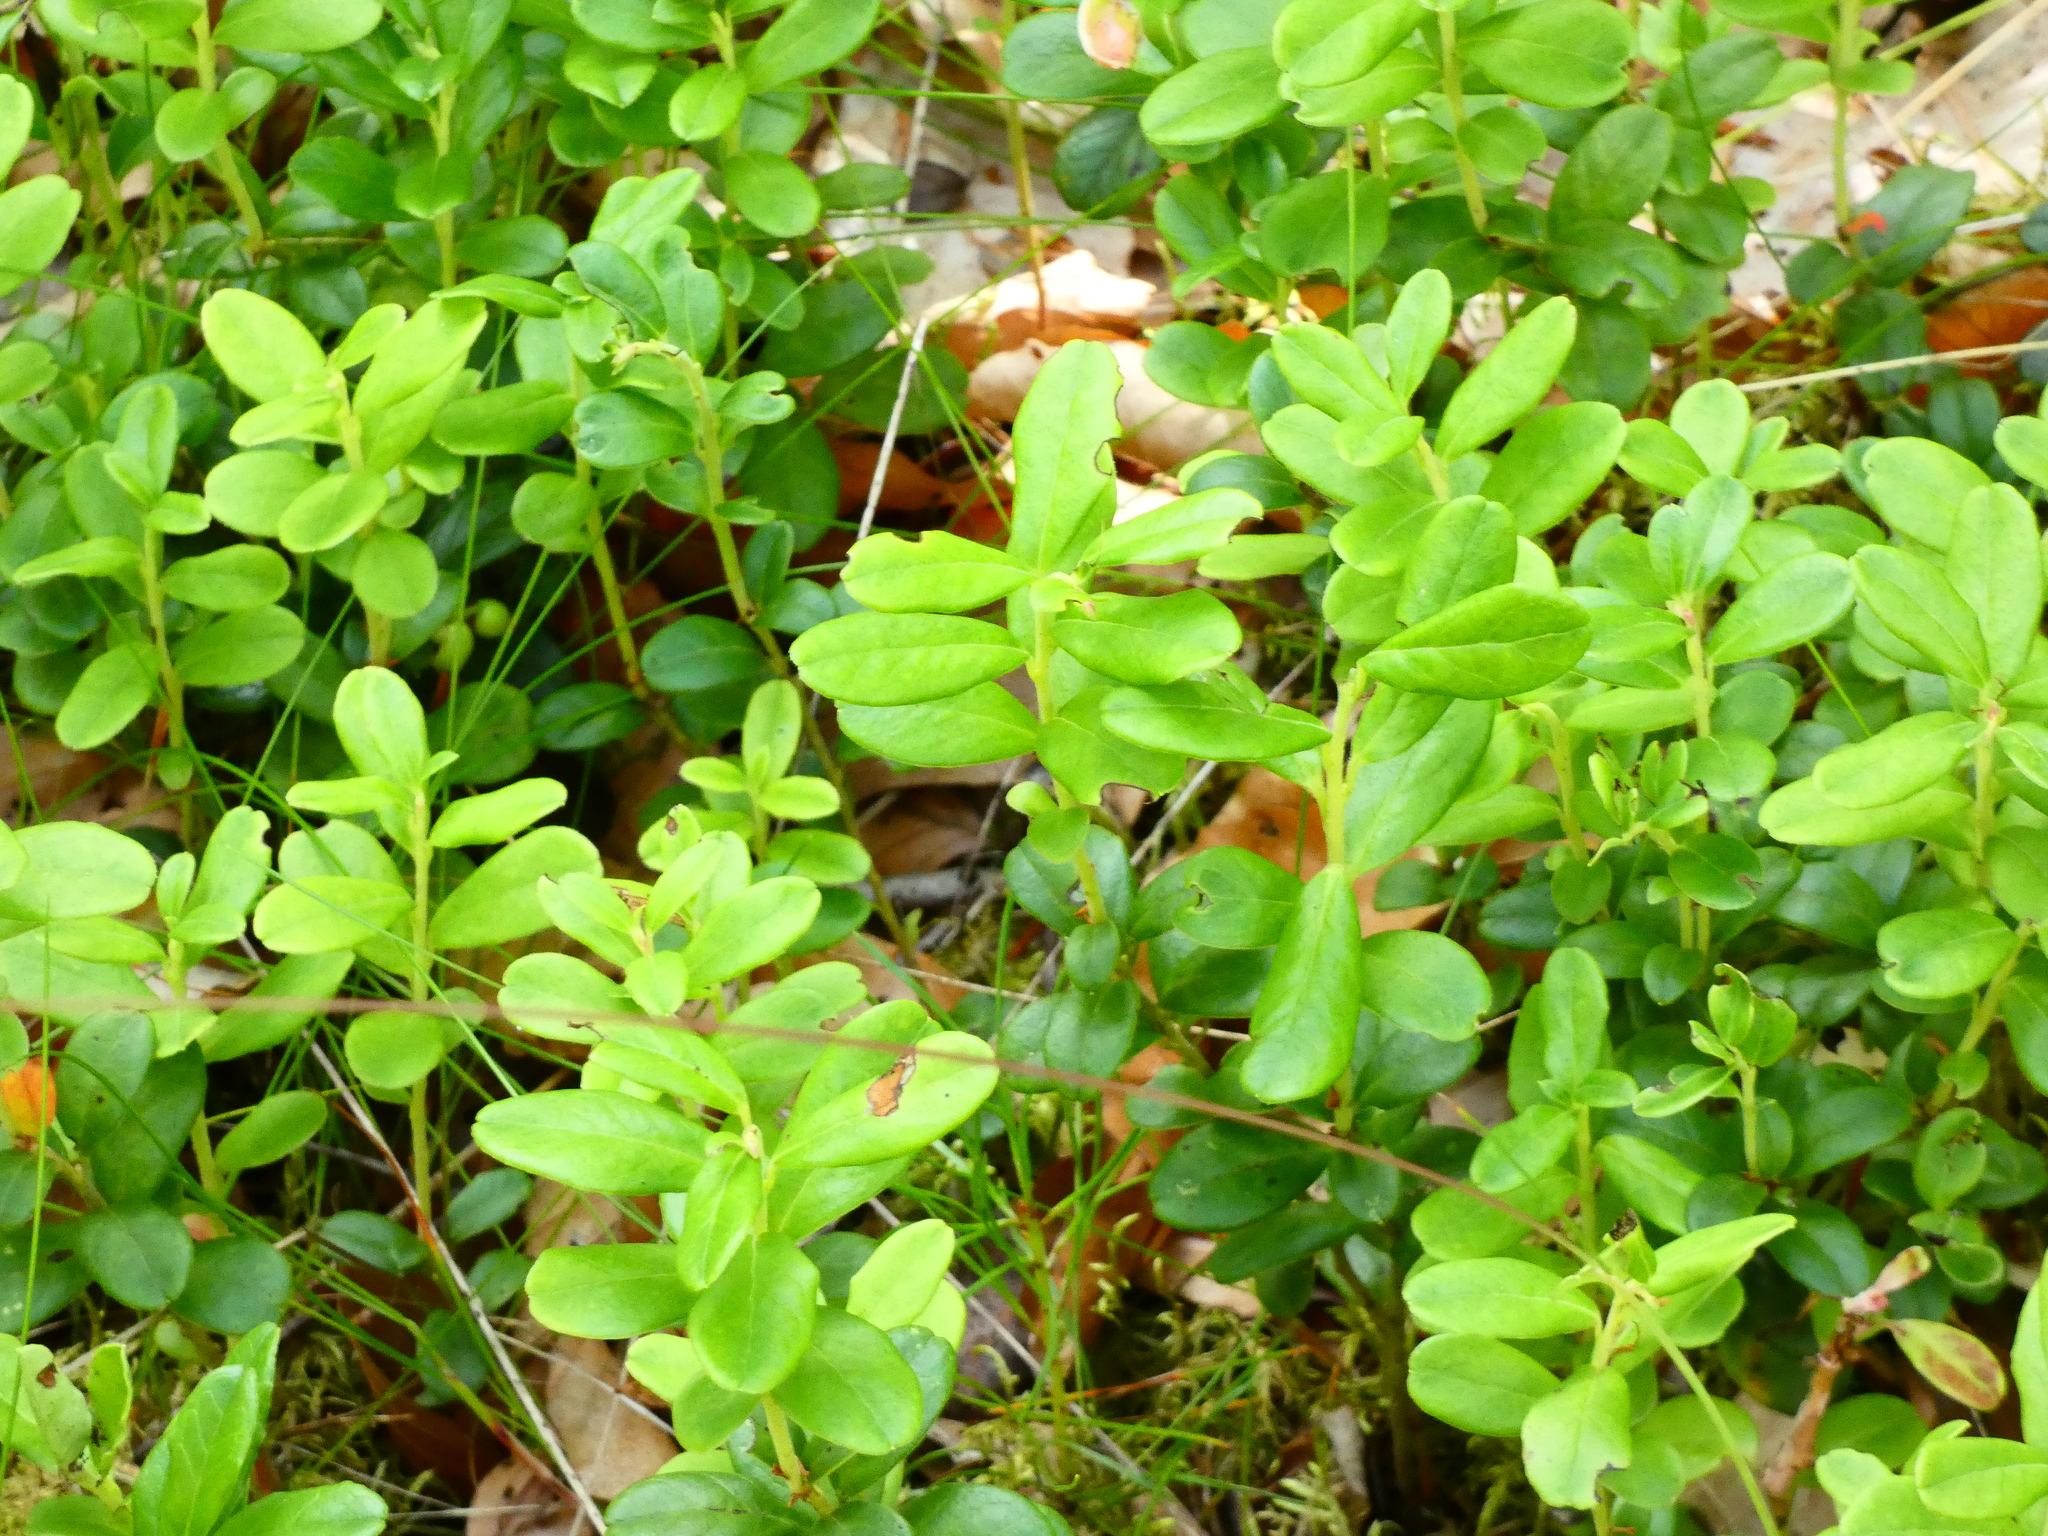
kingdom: Plantae
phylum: Tracheophyta
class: Magnoliopsida
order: Ericales
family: Ericaceae
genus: Vaccinium
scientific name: Vaccinium vitis-idaea
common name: Cowberry
